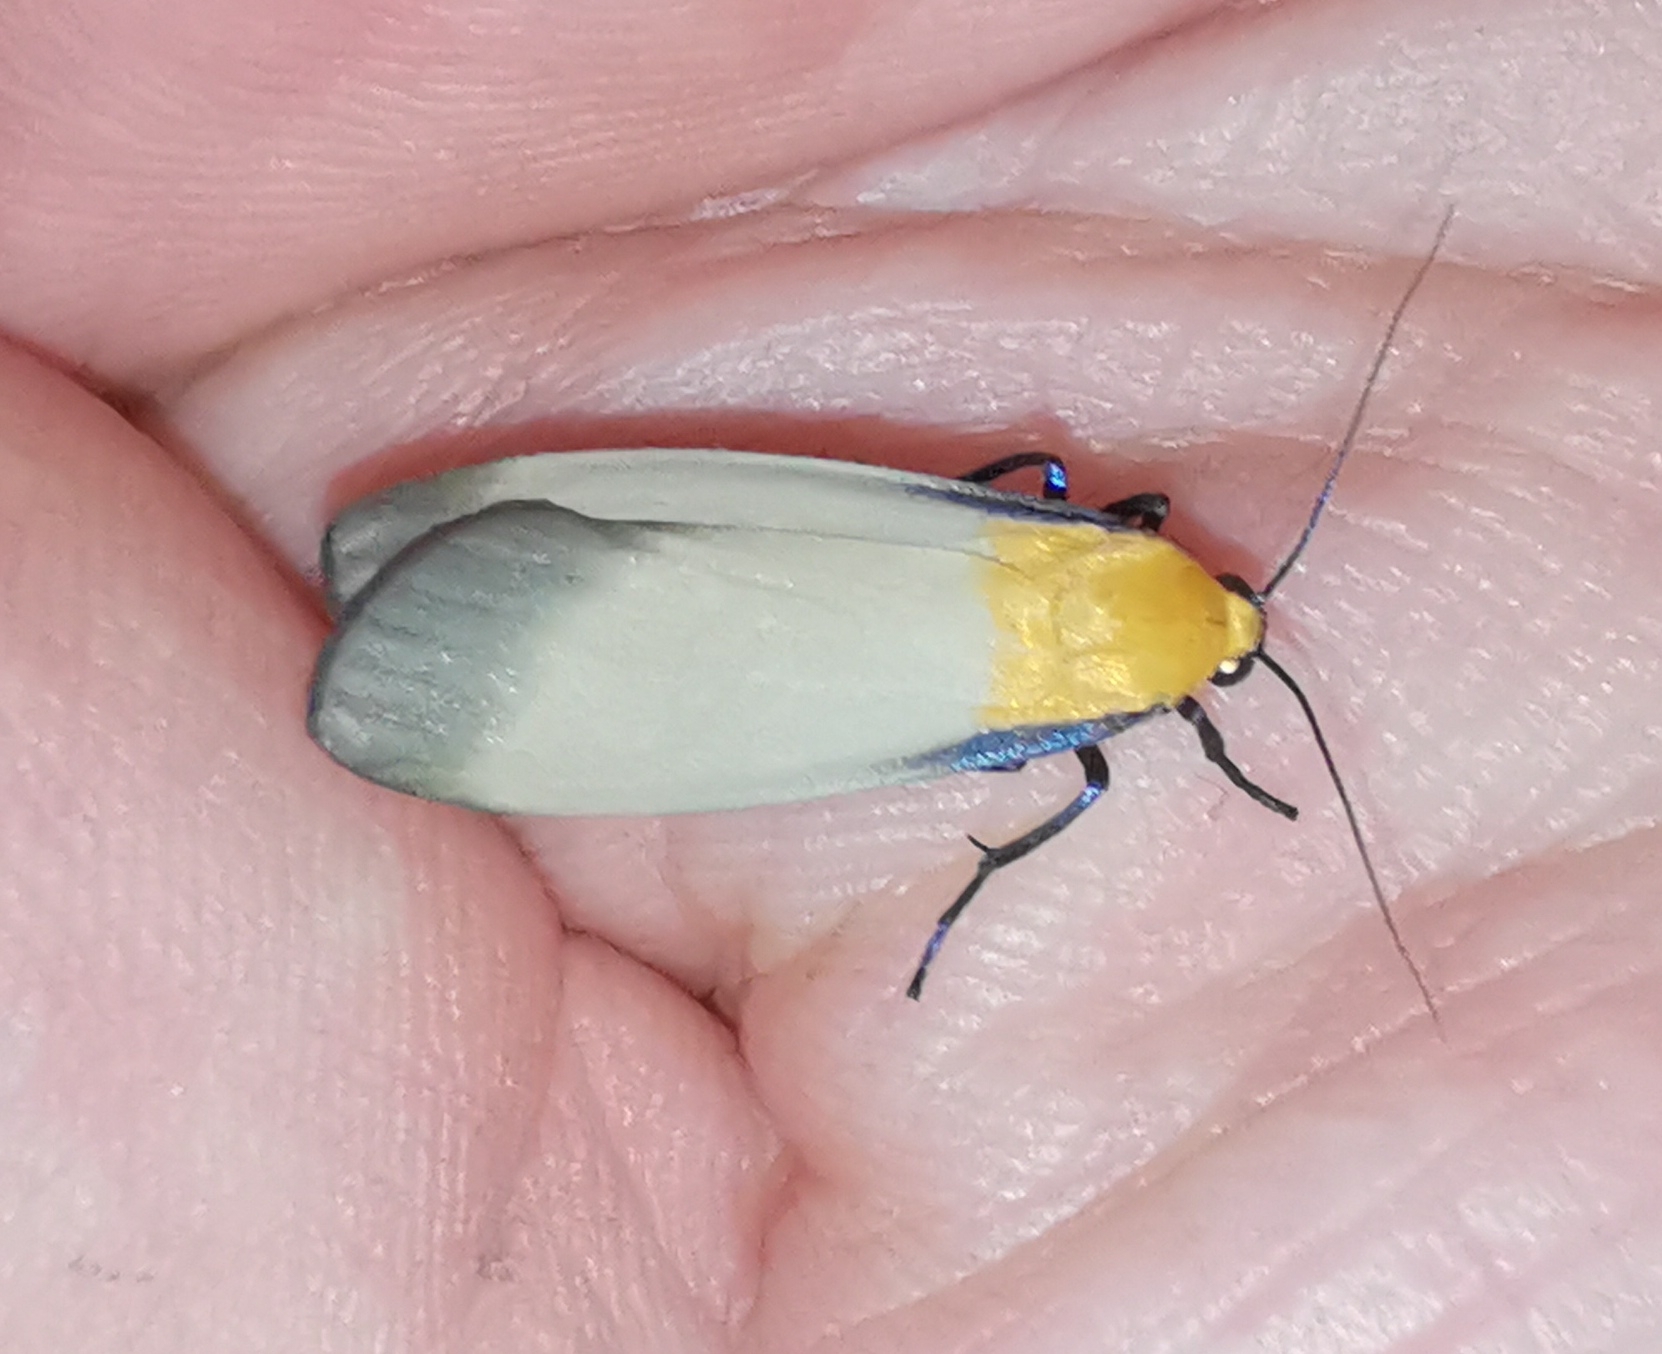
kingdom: Animalia
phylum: Arthropoda
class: Insecta
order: Lepidoptera
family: Erebidae
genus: Lithosia
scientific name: Lithosia quadra
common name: Four-spotted footman
